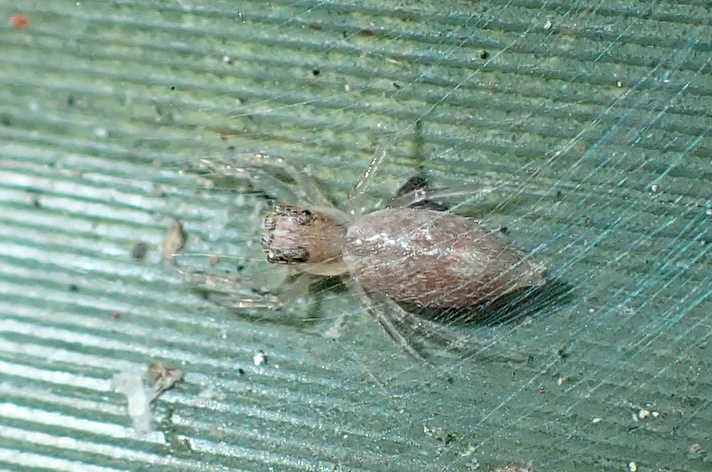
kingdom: Animalia
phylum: Arthropoda
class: Arachnida
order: Araneae
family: Salticidae
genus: Helpis
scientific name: Helpis minitabunda
